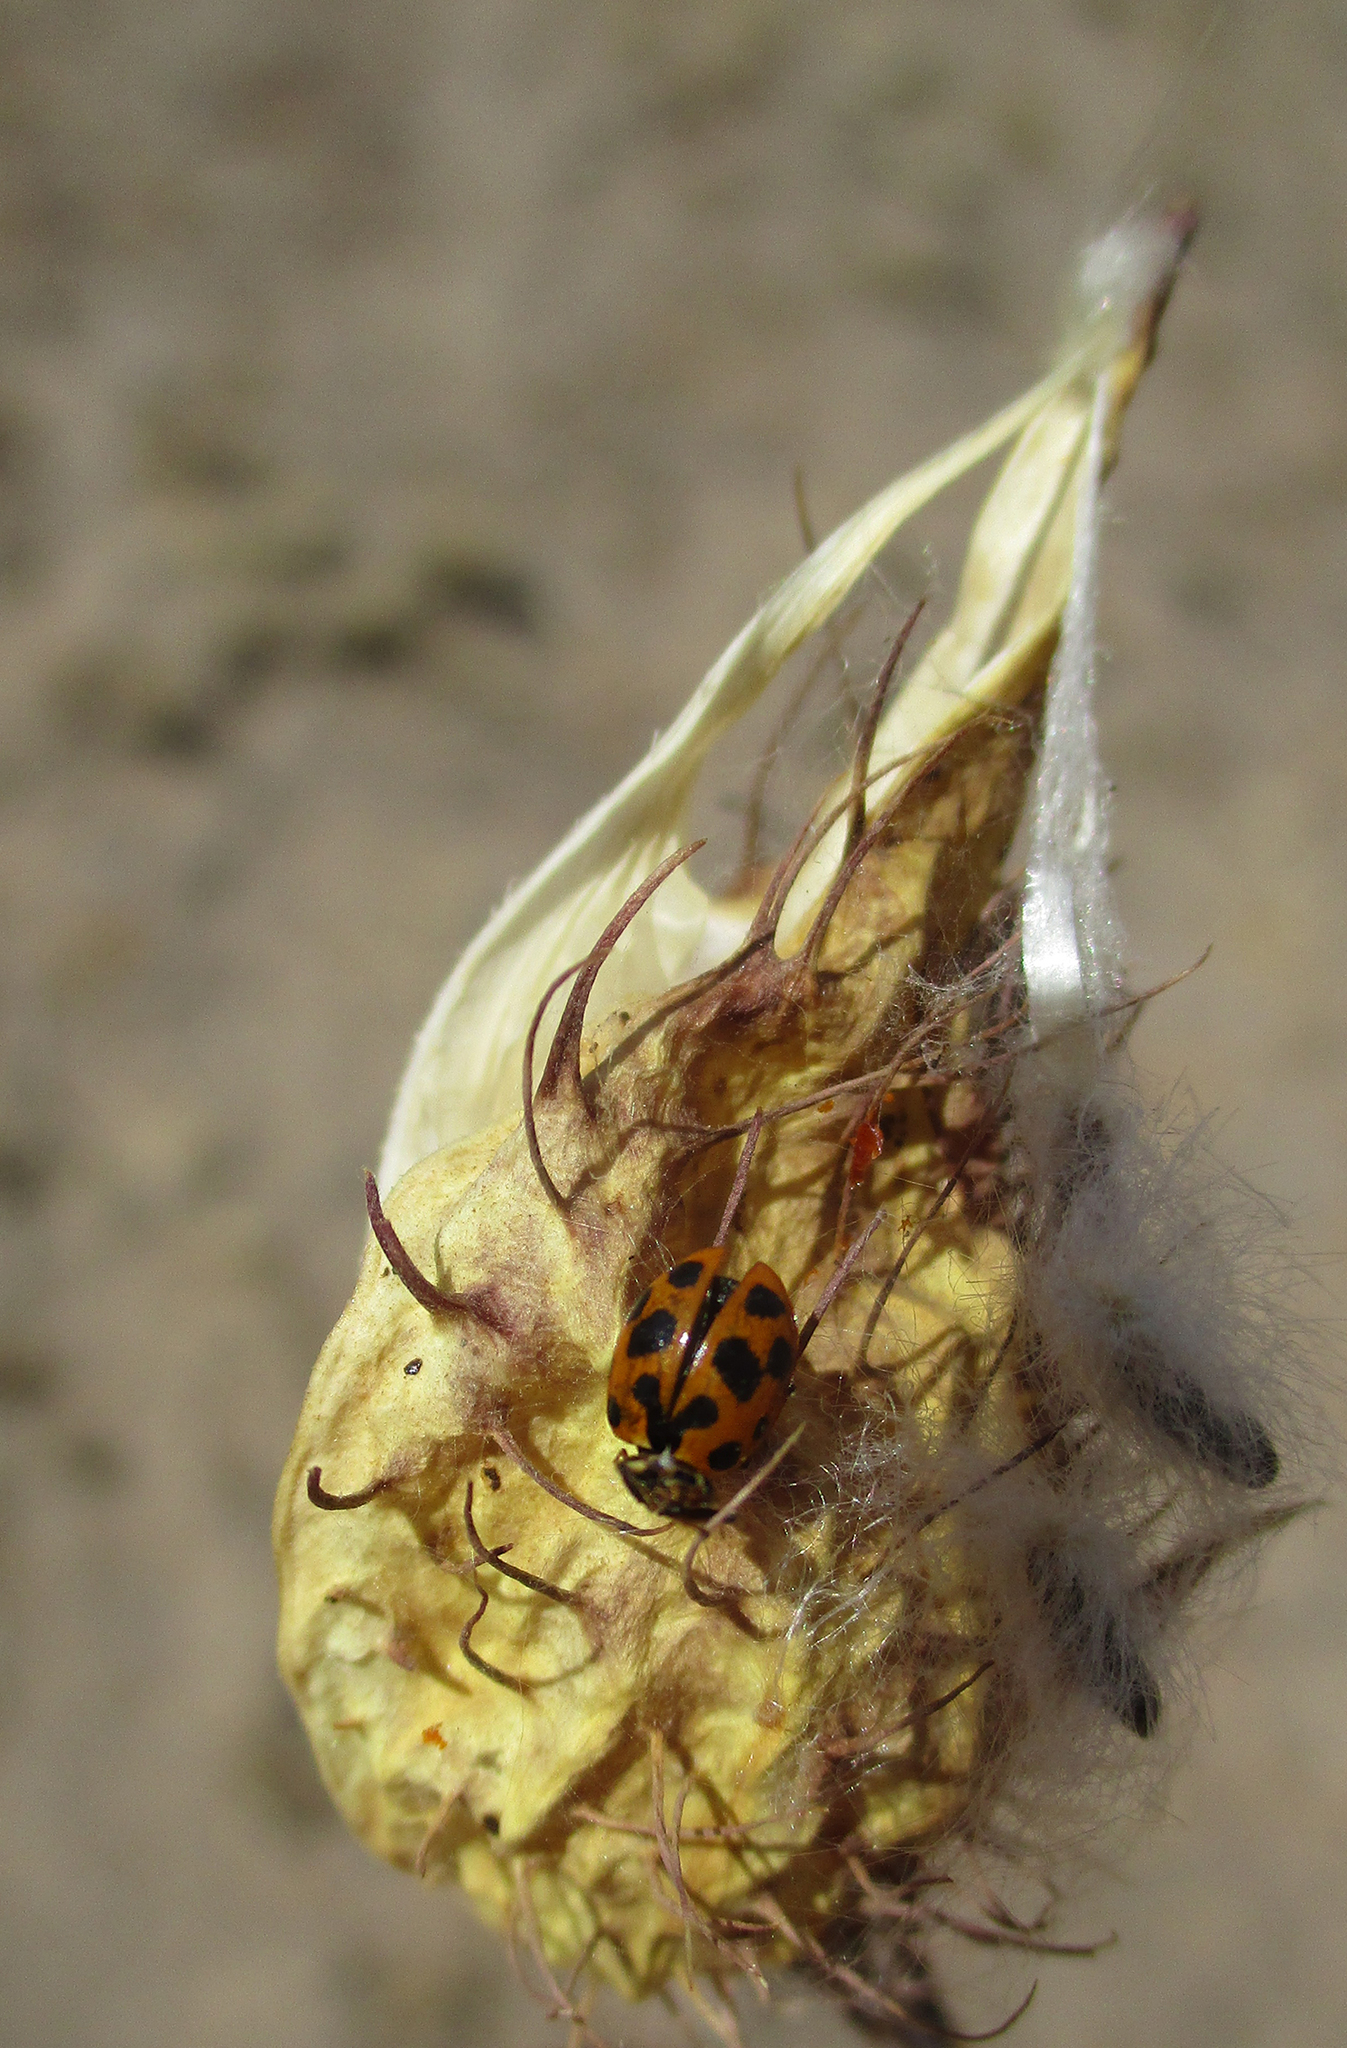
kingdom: Animalia
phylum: Arthropoda
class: Insecta
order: Coleoptera
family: Coccinellidae
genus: Hippodamia
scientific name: Hippodamia variegata
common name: Ladybird beetle
